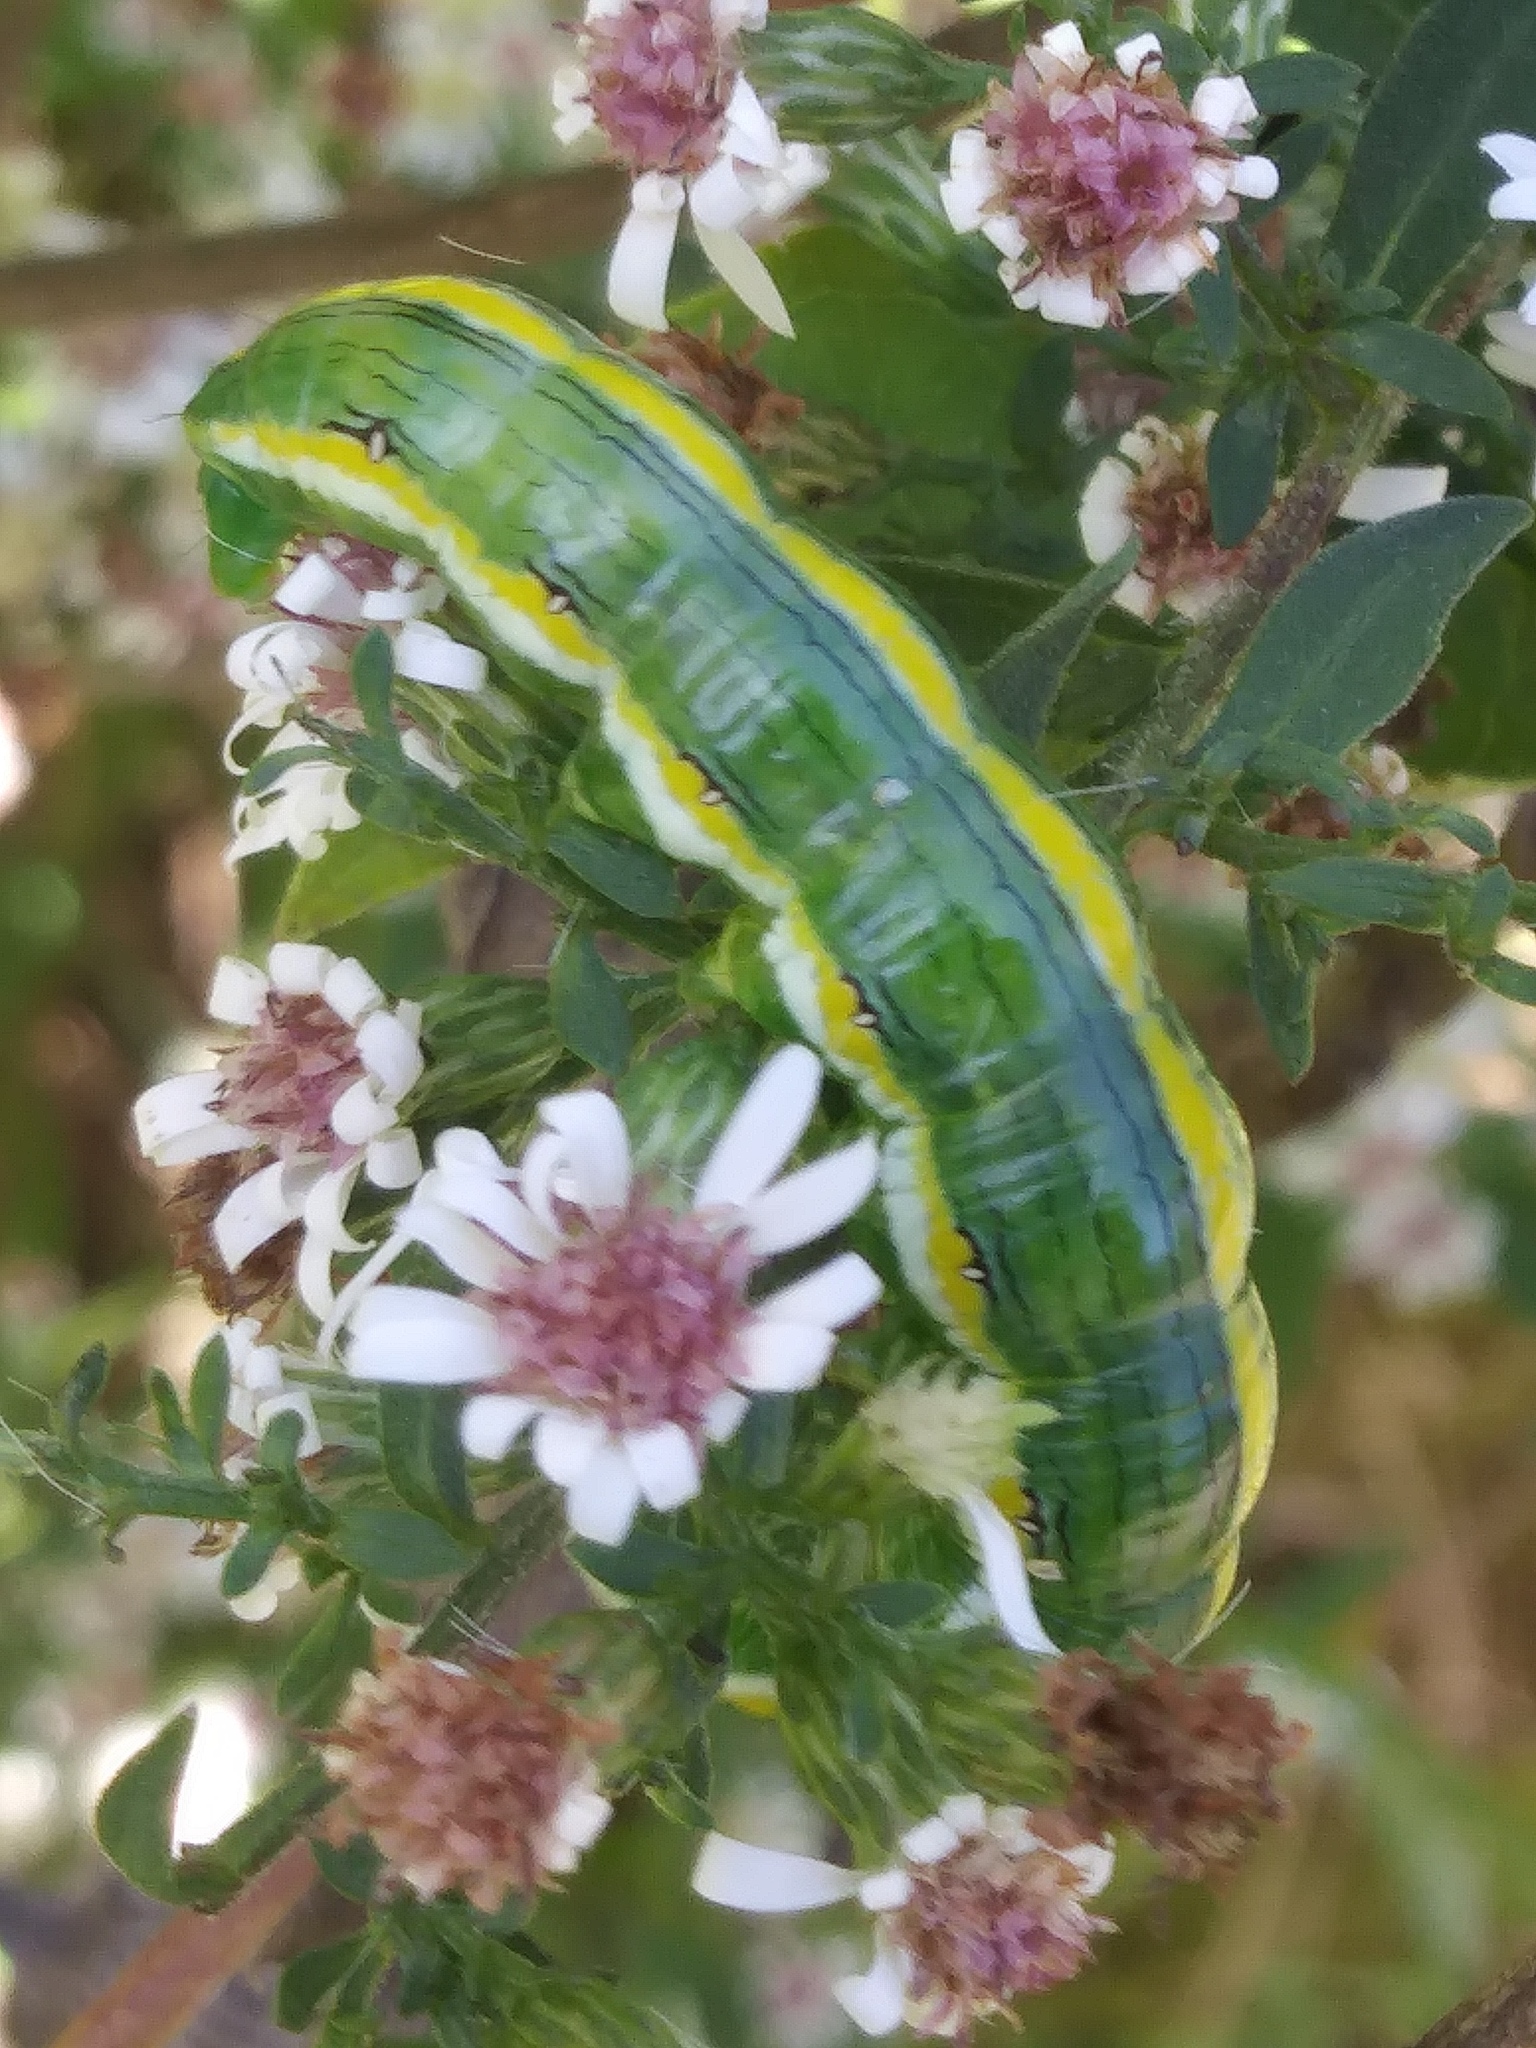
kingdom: Animalia
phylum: Arthropoda
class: Insecta
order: Lepidoptera
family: Noctuidae
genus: Cucullia
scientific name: Cucullia asteroides
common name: Asteroid moth
